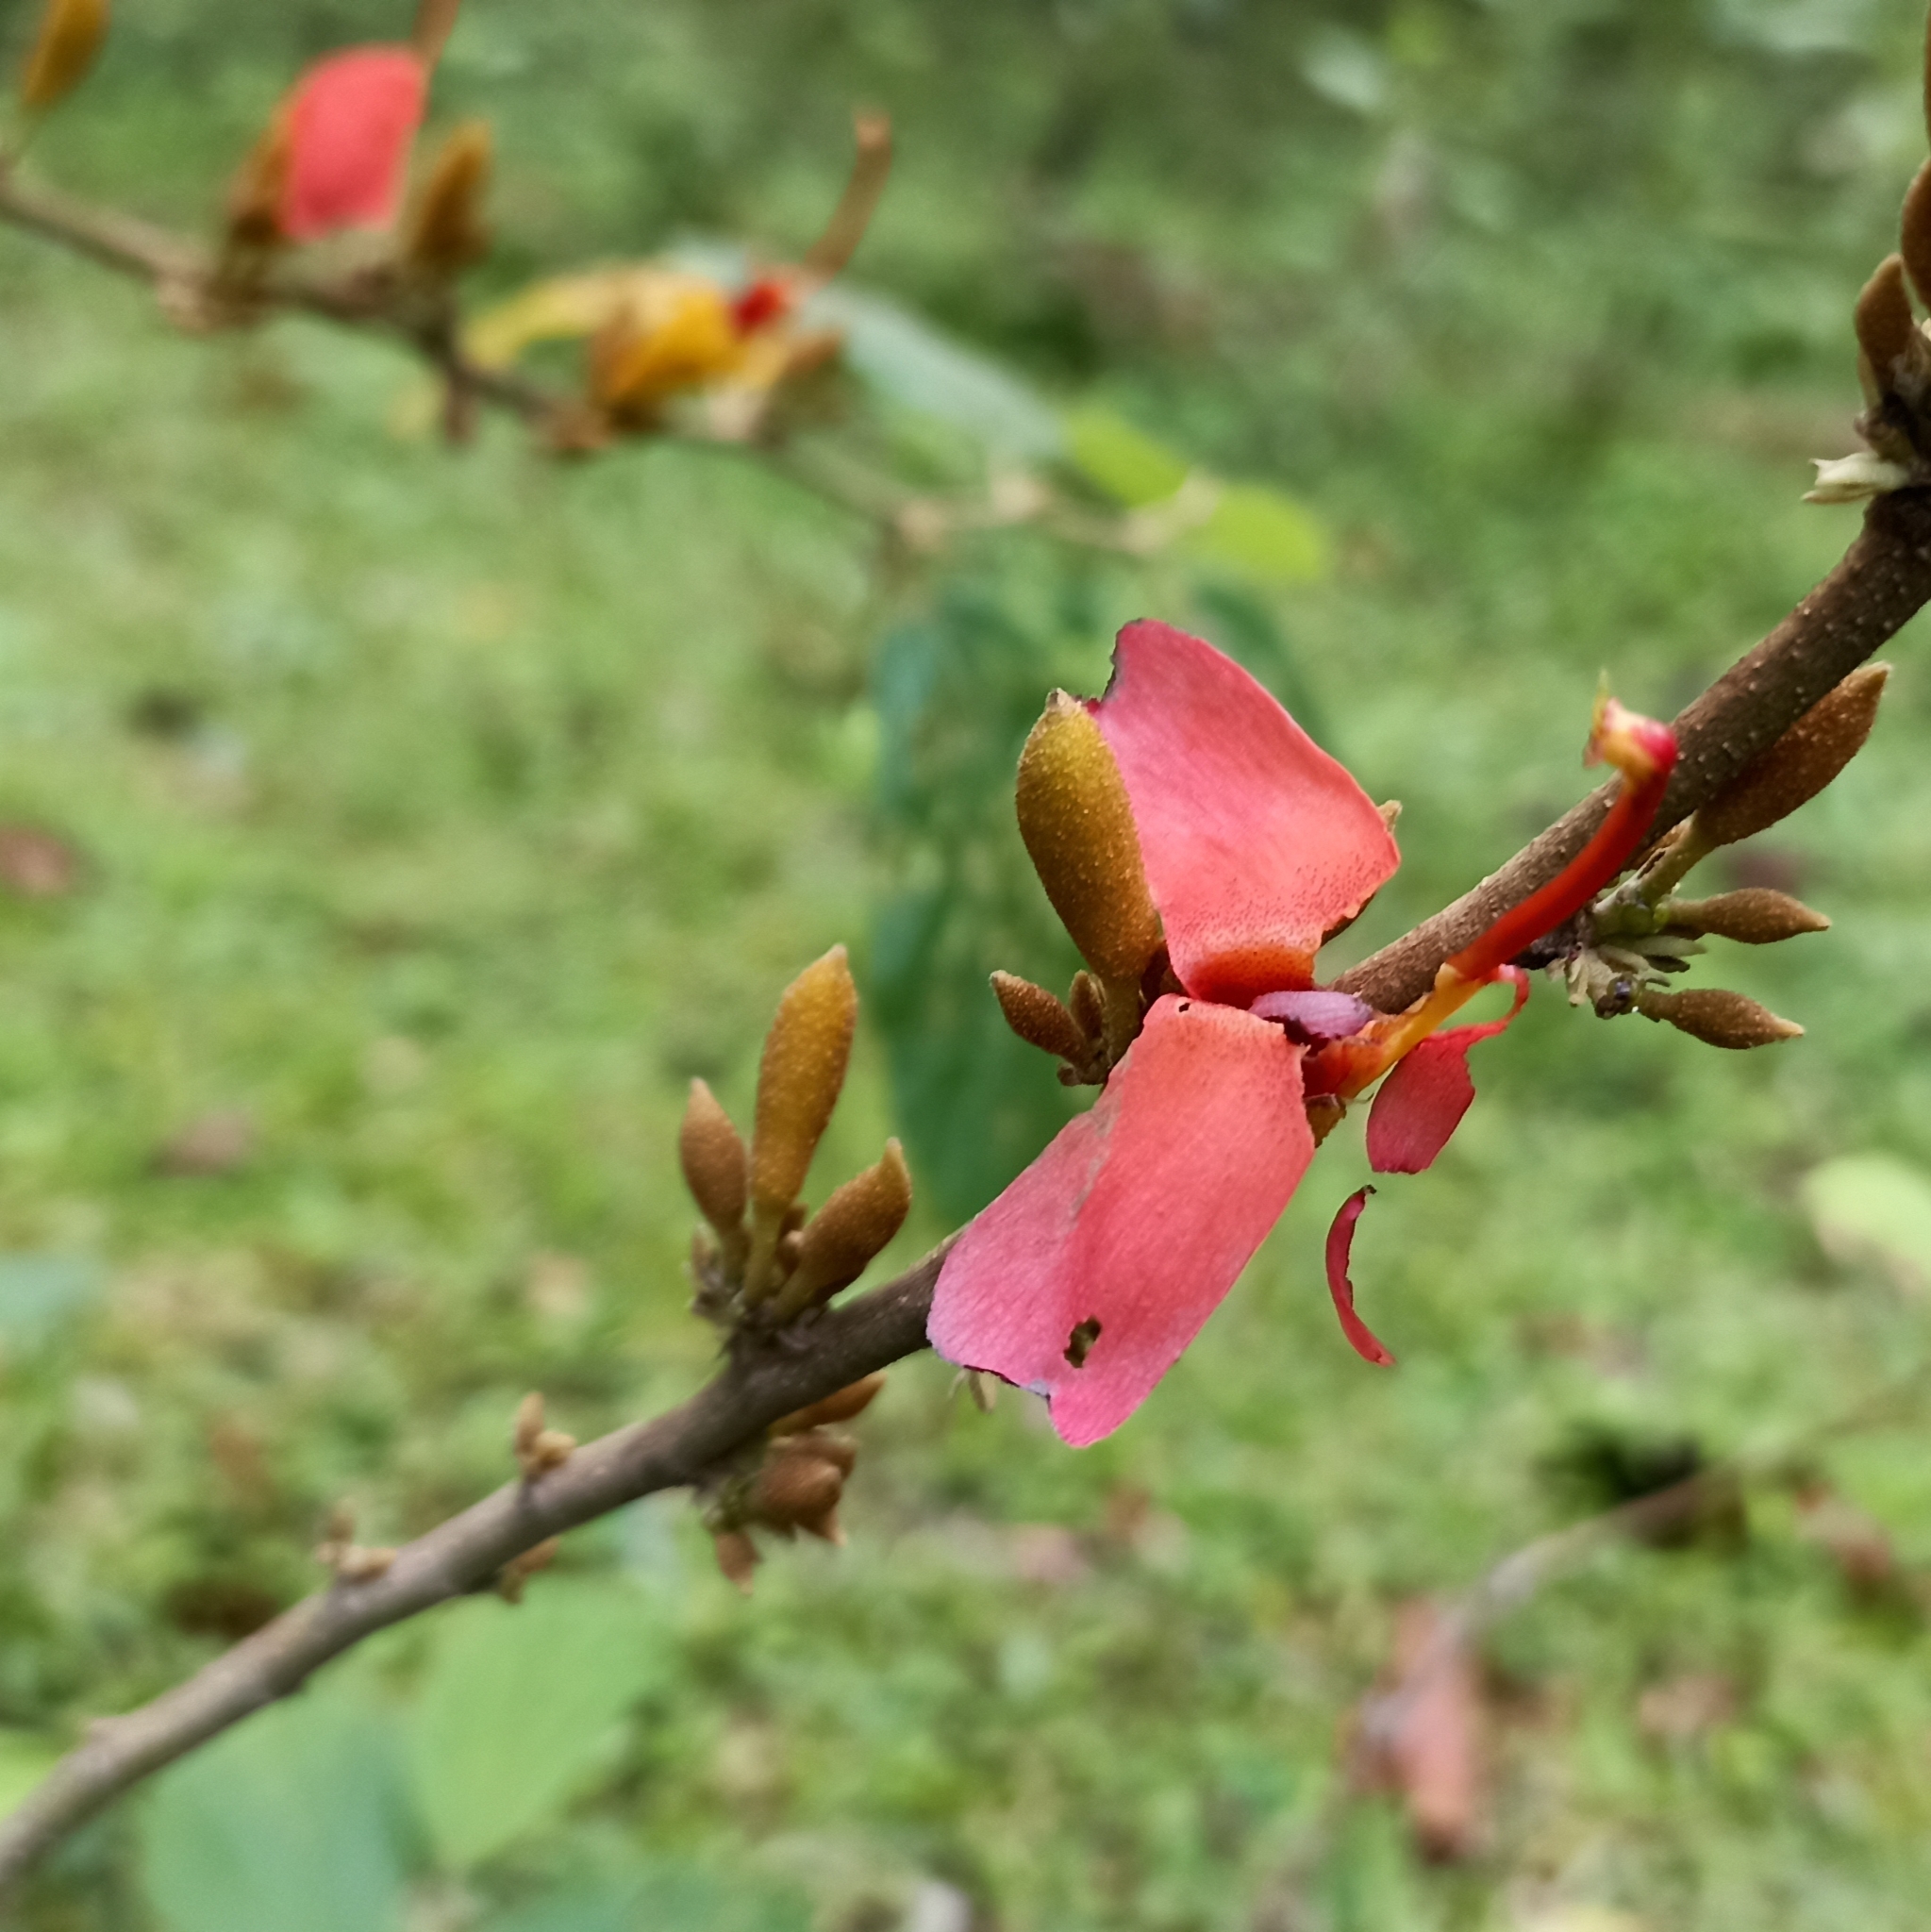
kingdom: Plantae
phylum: Tracheophyta
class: Magnoliopsida
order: Malvales
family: Malvaceae
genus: Helicteres
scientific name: Helicteres isora
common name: East indian screwtree
